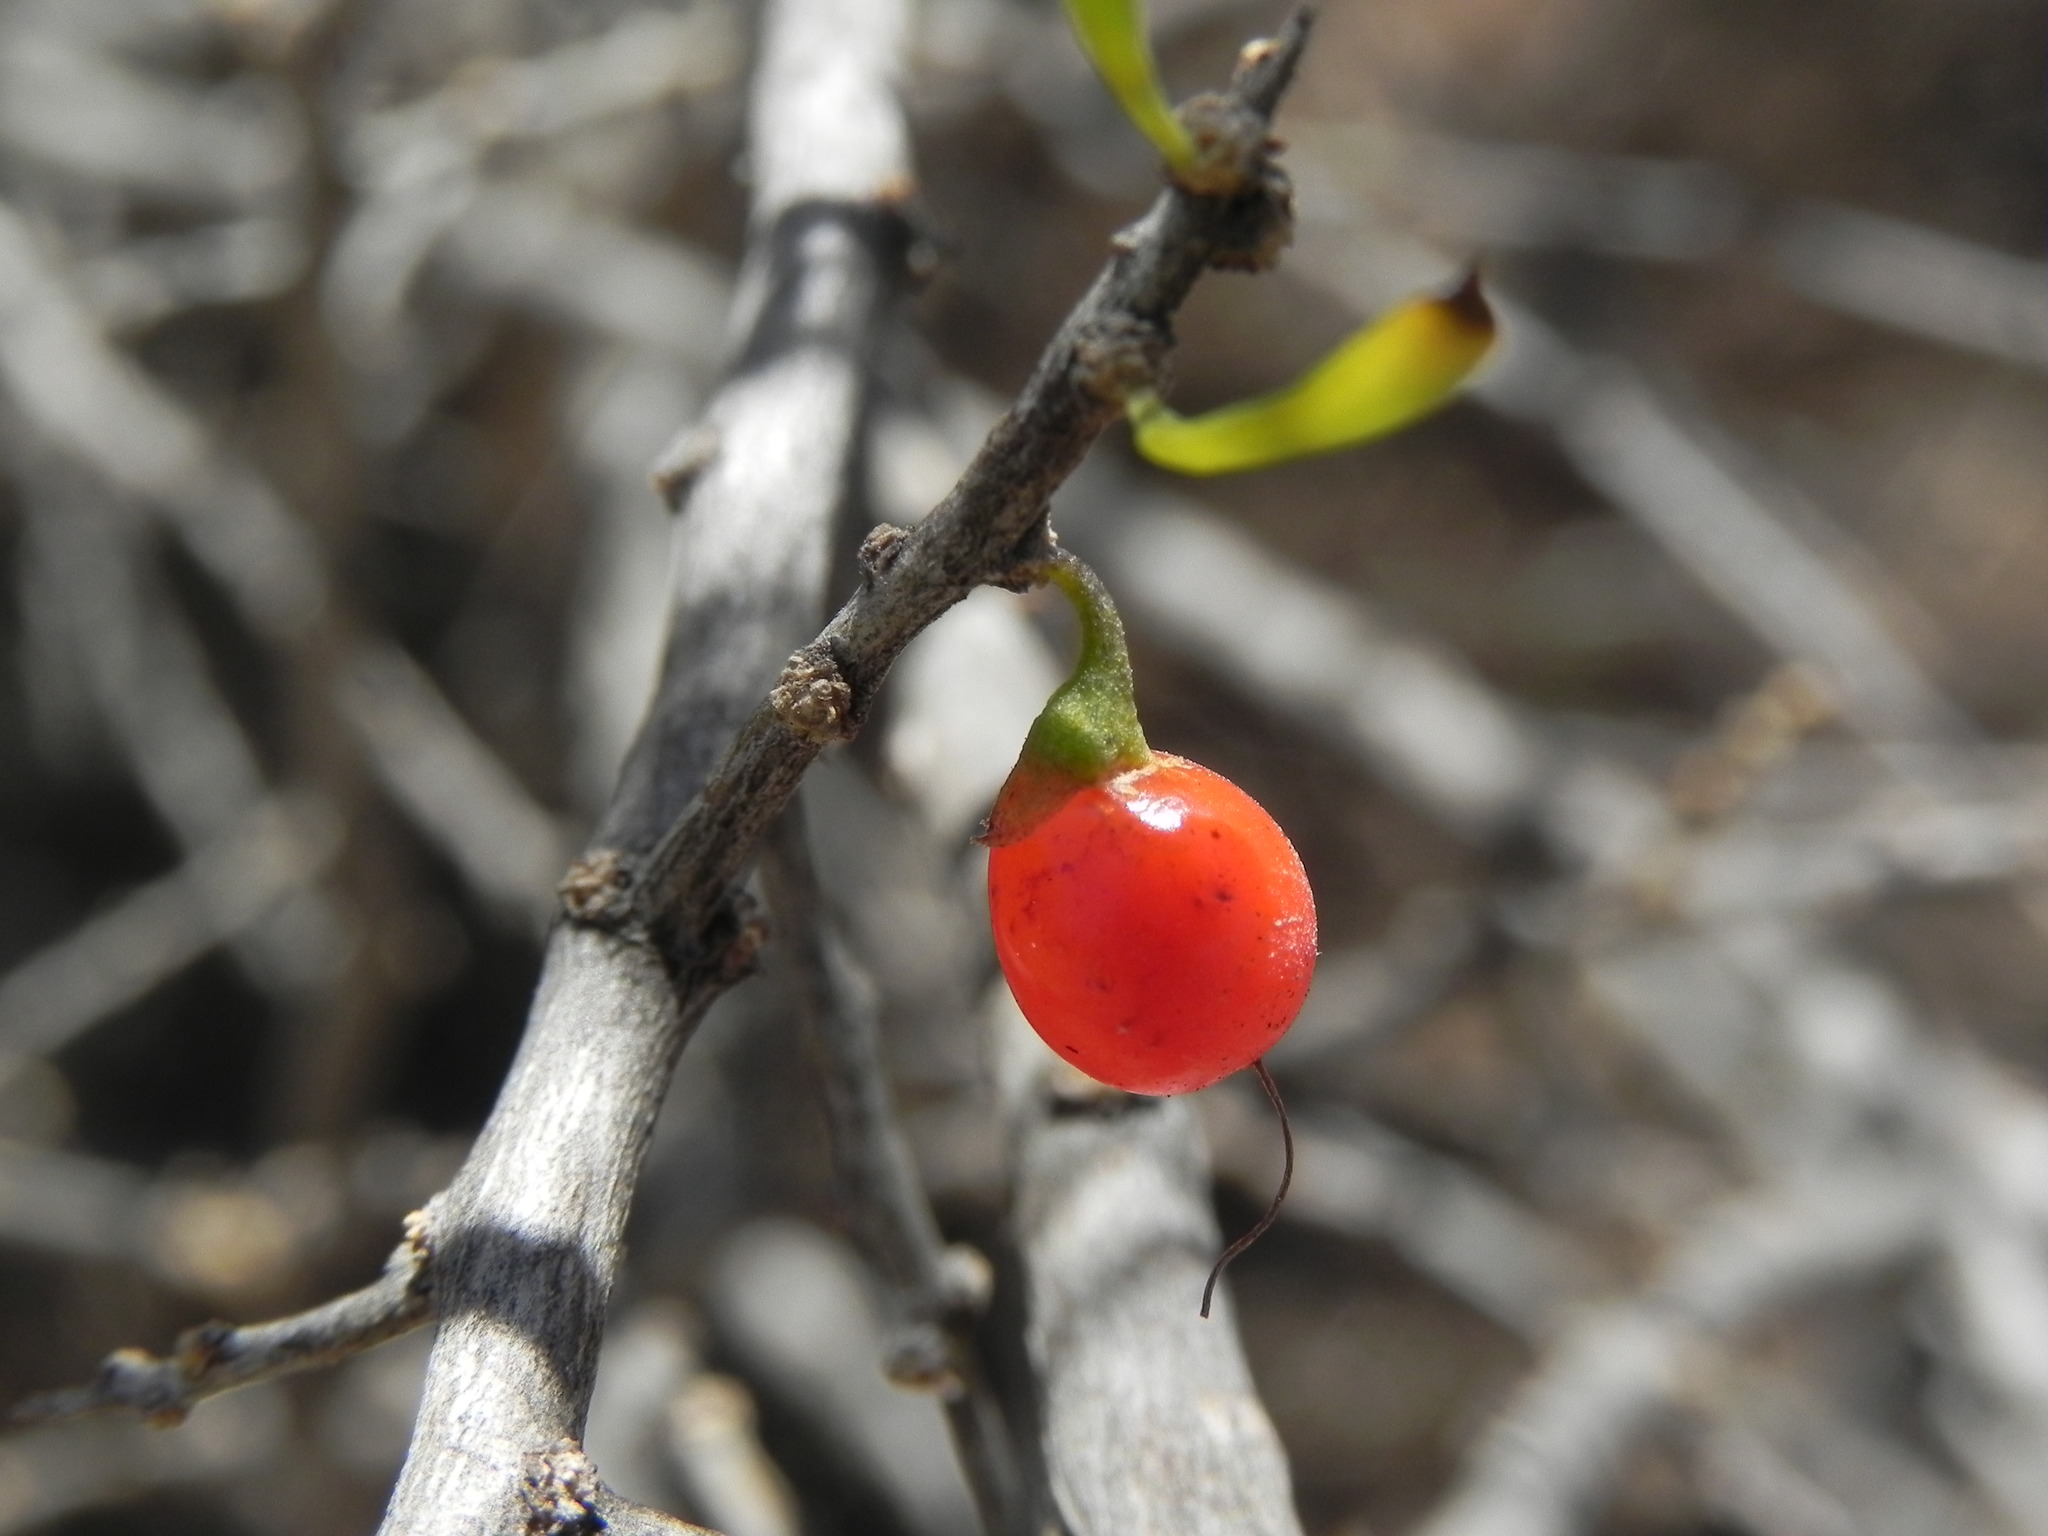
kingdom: Plantae
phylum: Tracheophyta
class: Magnoliopsida
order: Solanales
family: Solanaceae
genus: Lycium
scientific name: Lycium andersonii
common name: Water-jacket
